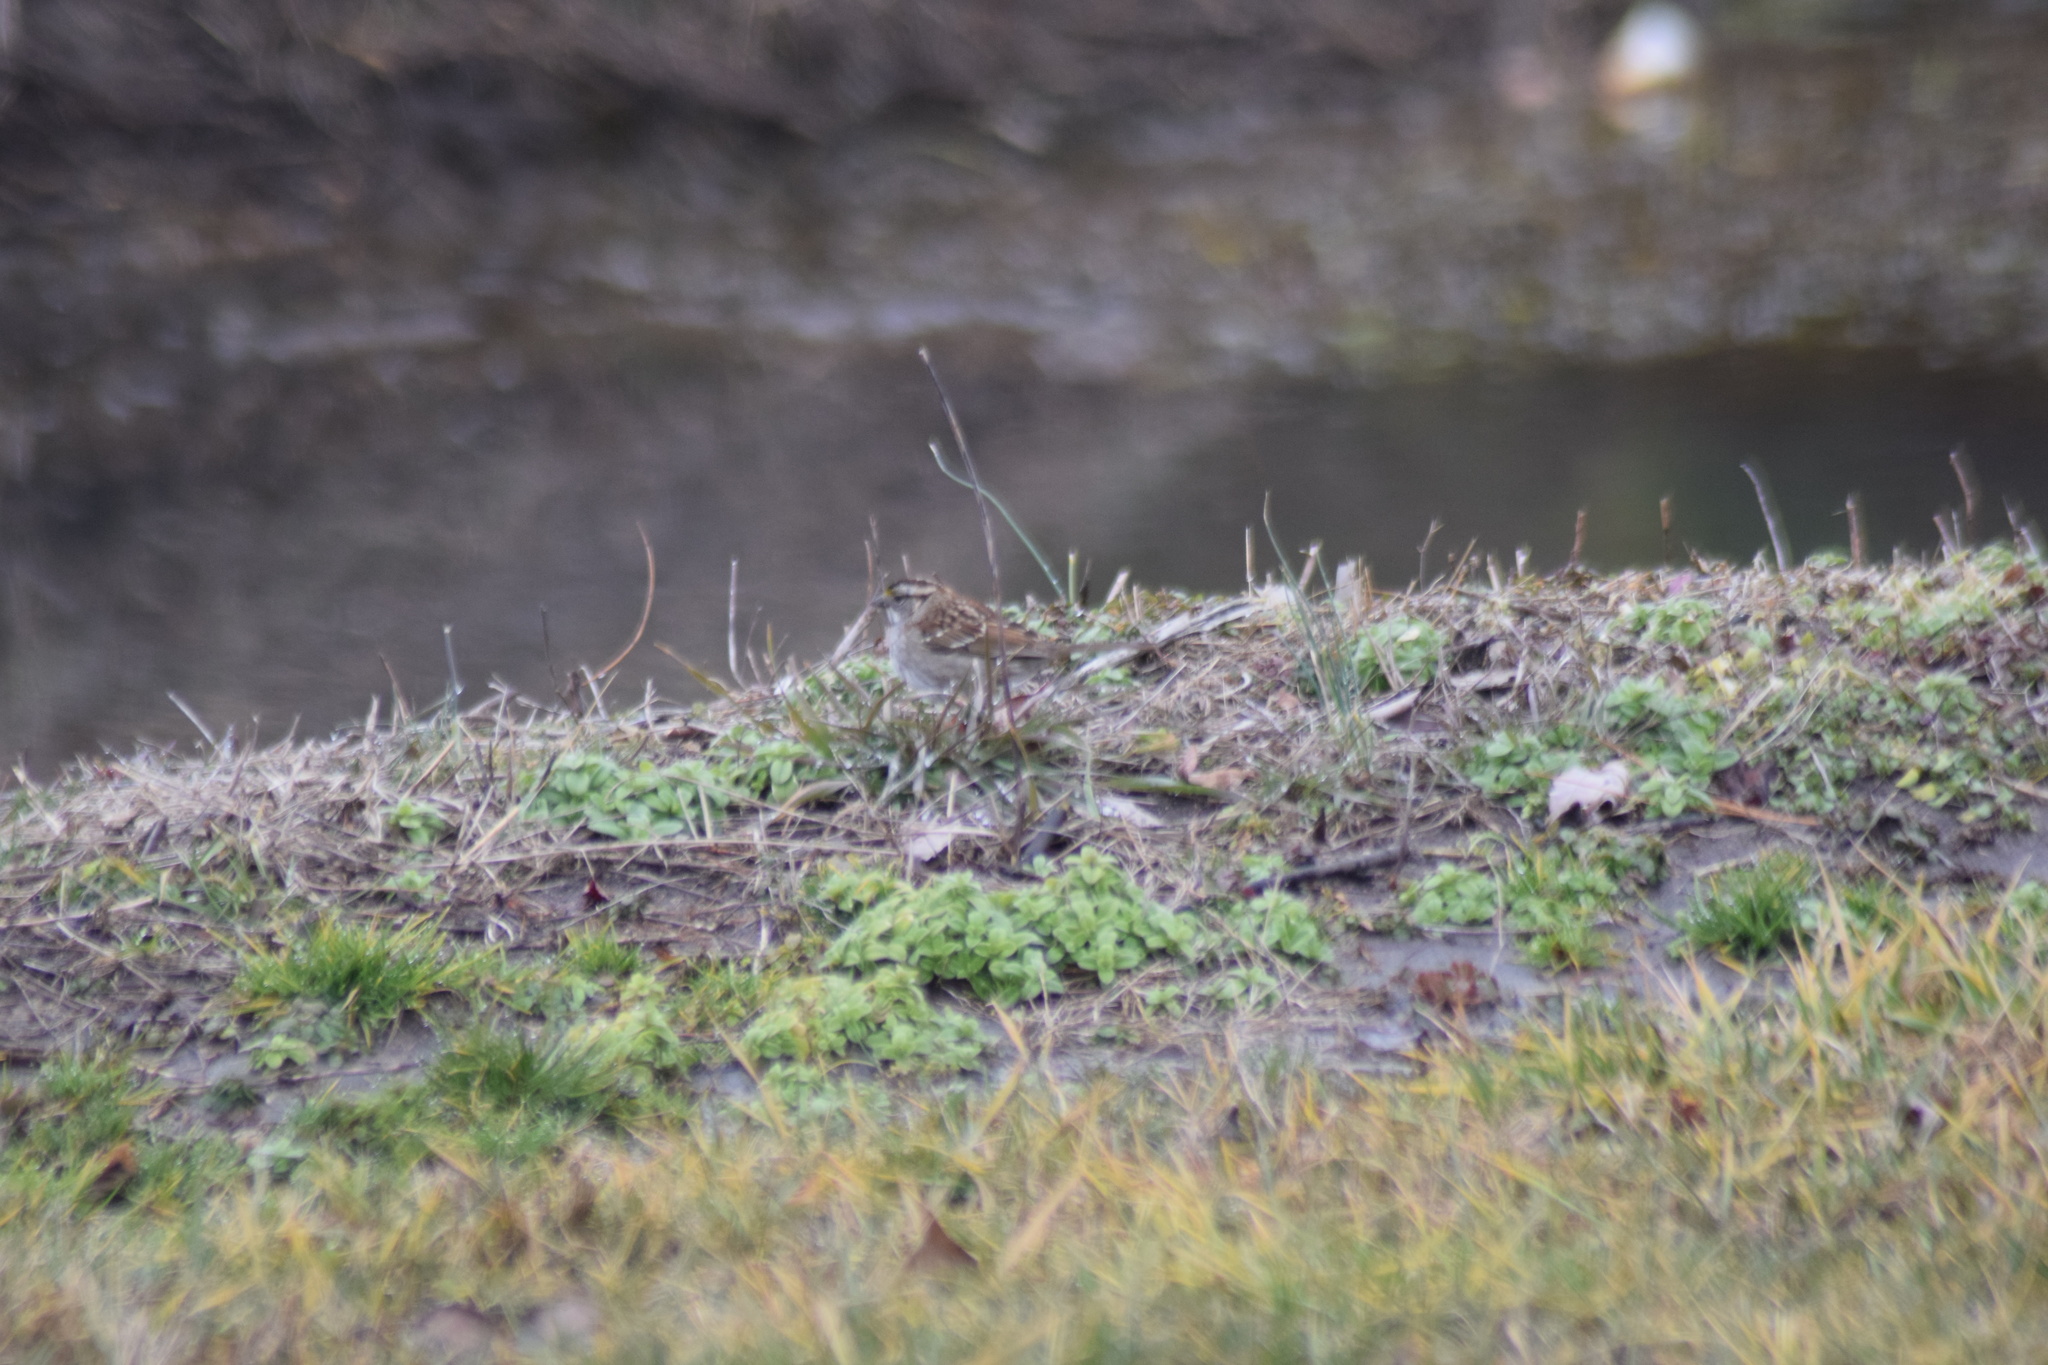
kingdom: Animalia
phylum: Chordata
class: Aves
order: Passeriformes
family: Passerellidae
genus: Zonotrichia
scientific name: Zonotrichia albicollis
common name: White-throated sparrow
